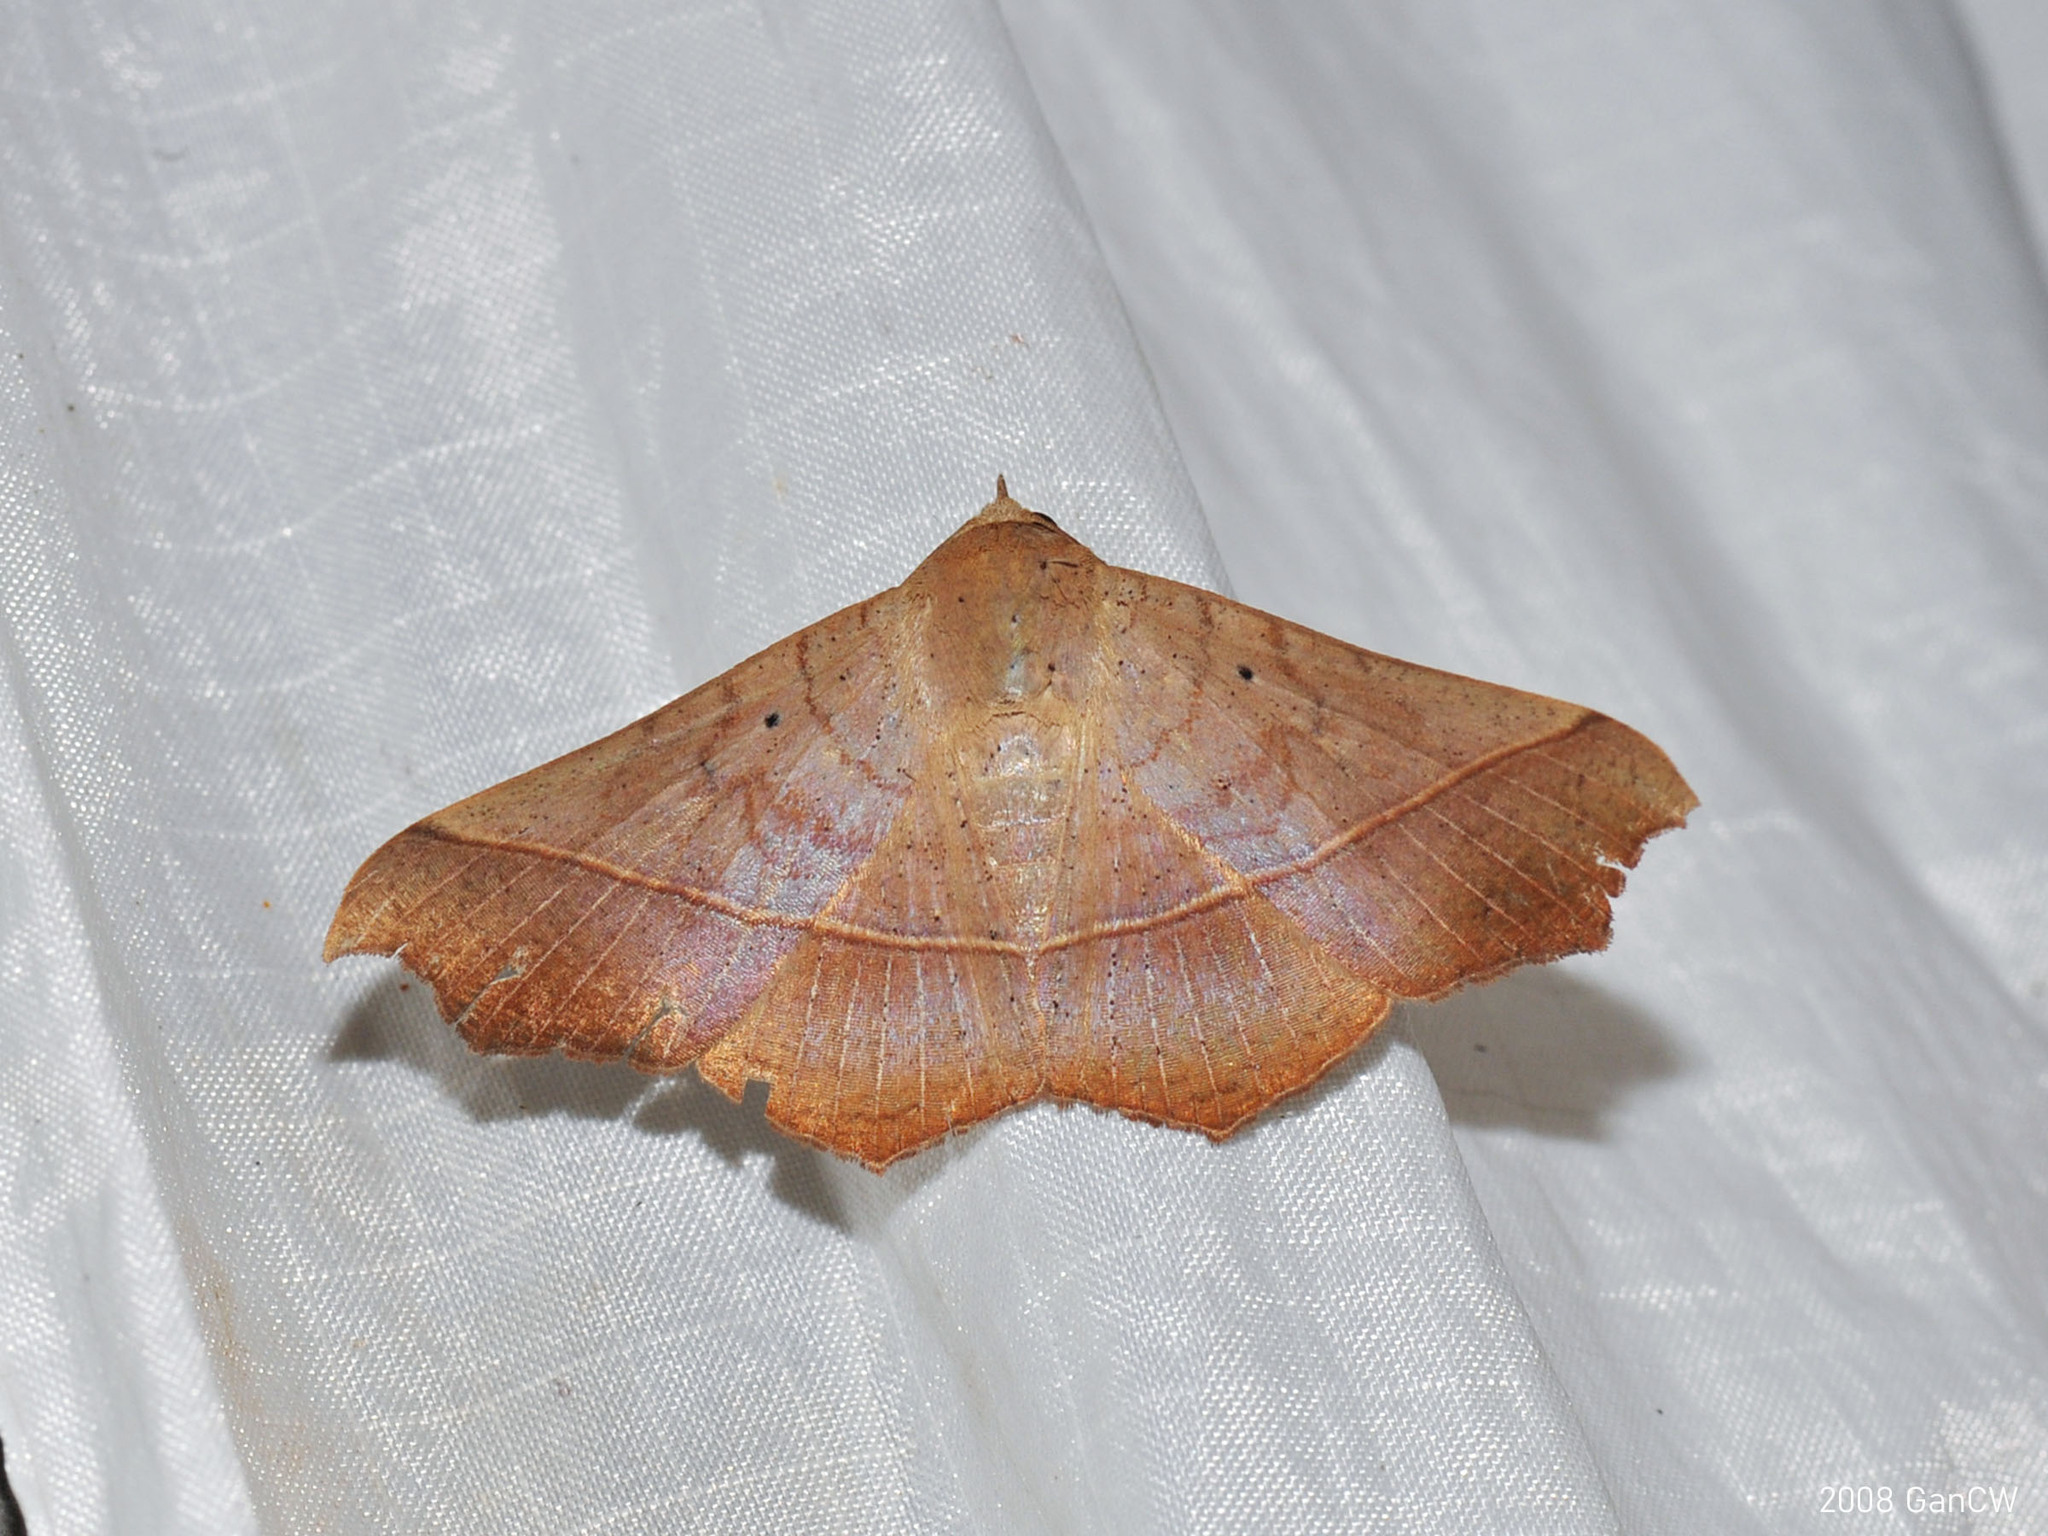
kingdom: Animalia
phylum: Arthropoda
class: Insecta
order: Lepidoptera
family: Erebidae
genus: Chilkasa
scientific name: Chilkasa falcata
